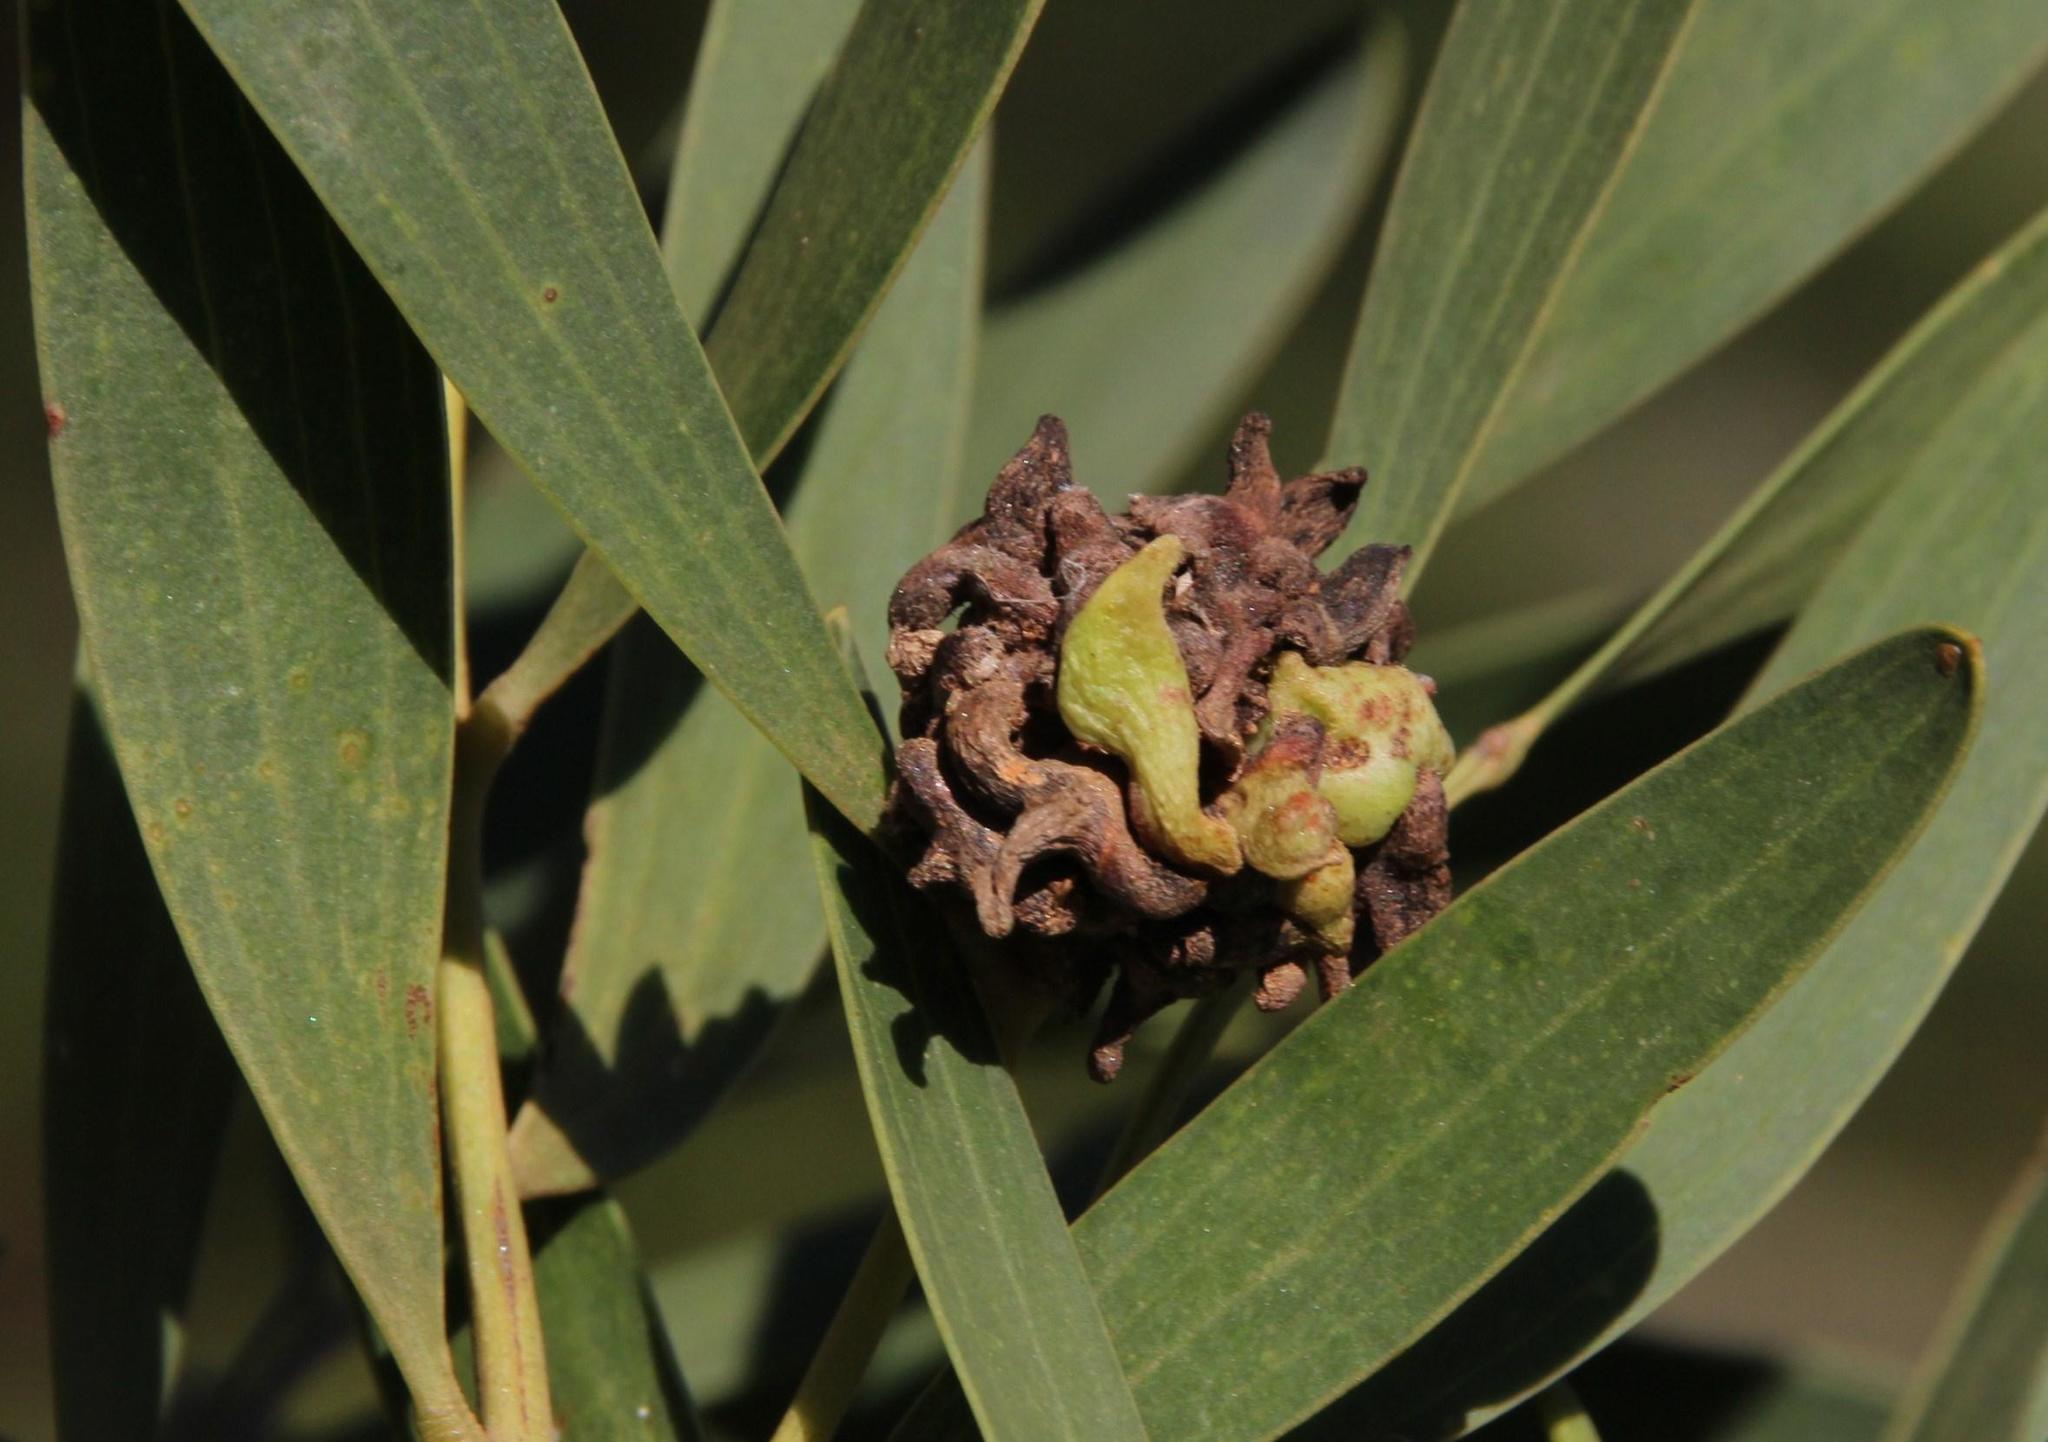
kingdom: Animalia
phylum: Arthropoda
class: Insecta
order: Diptera
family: Cecidomyiidae
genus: Dasineura
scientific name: Dasineura dielsi
